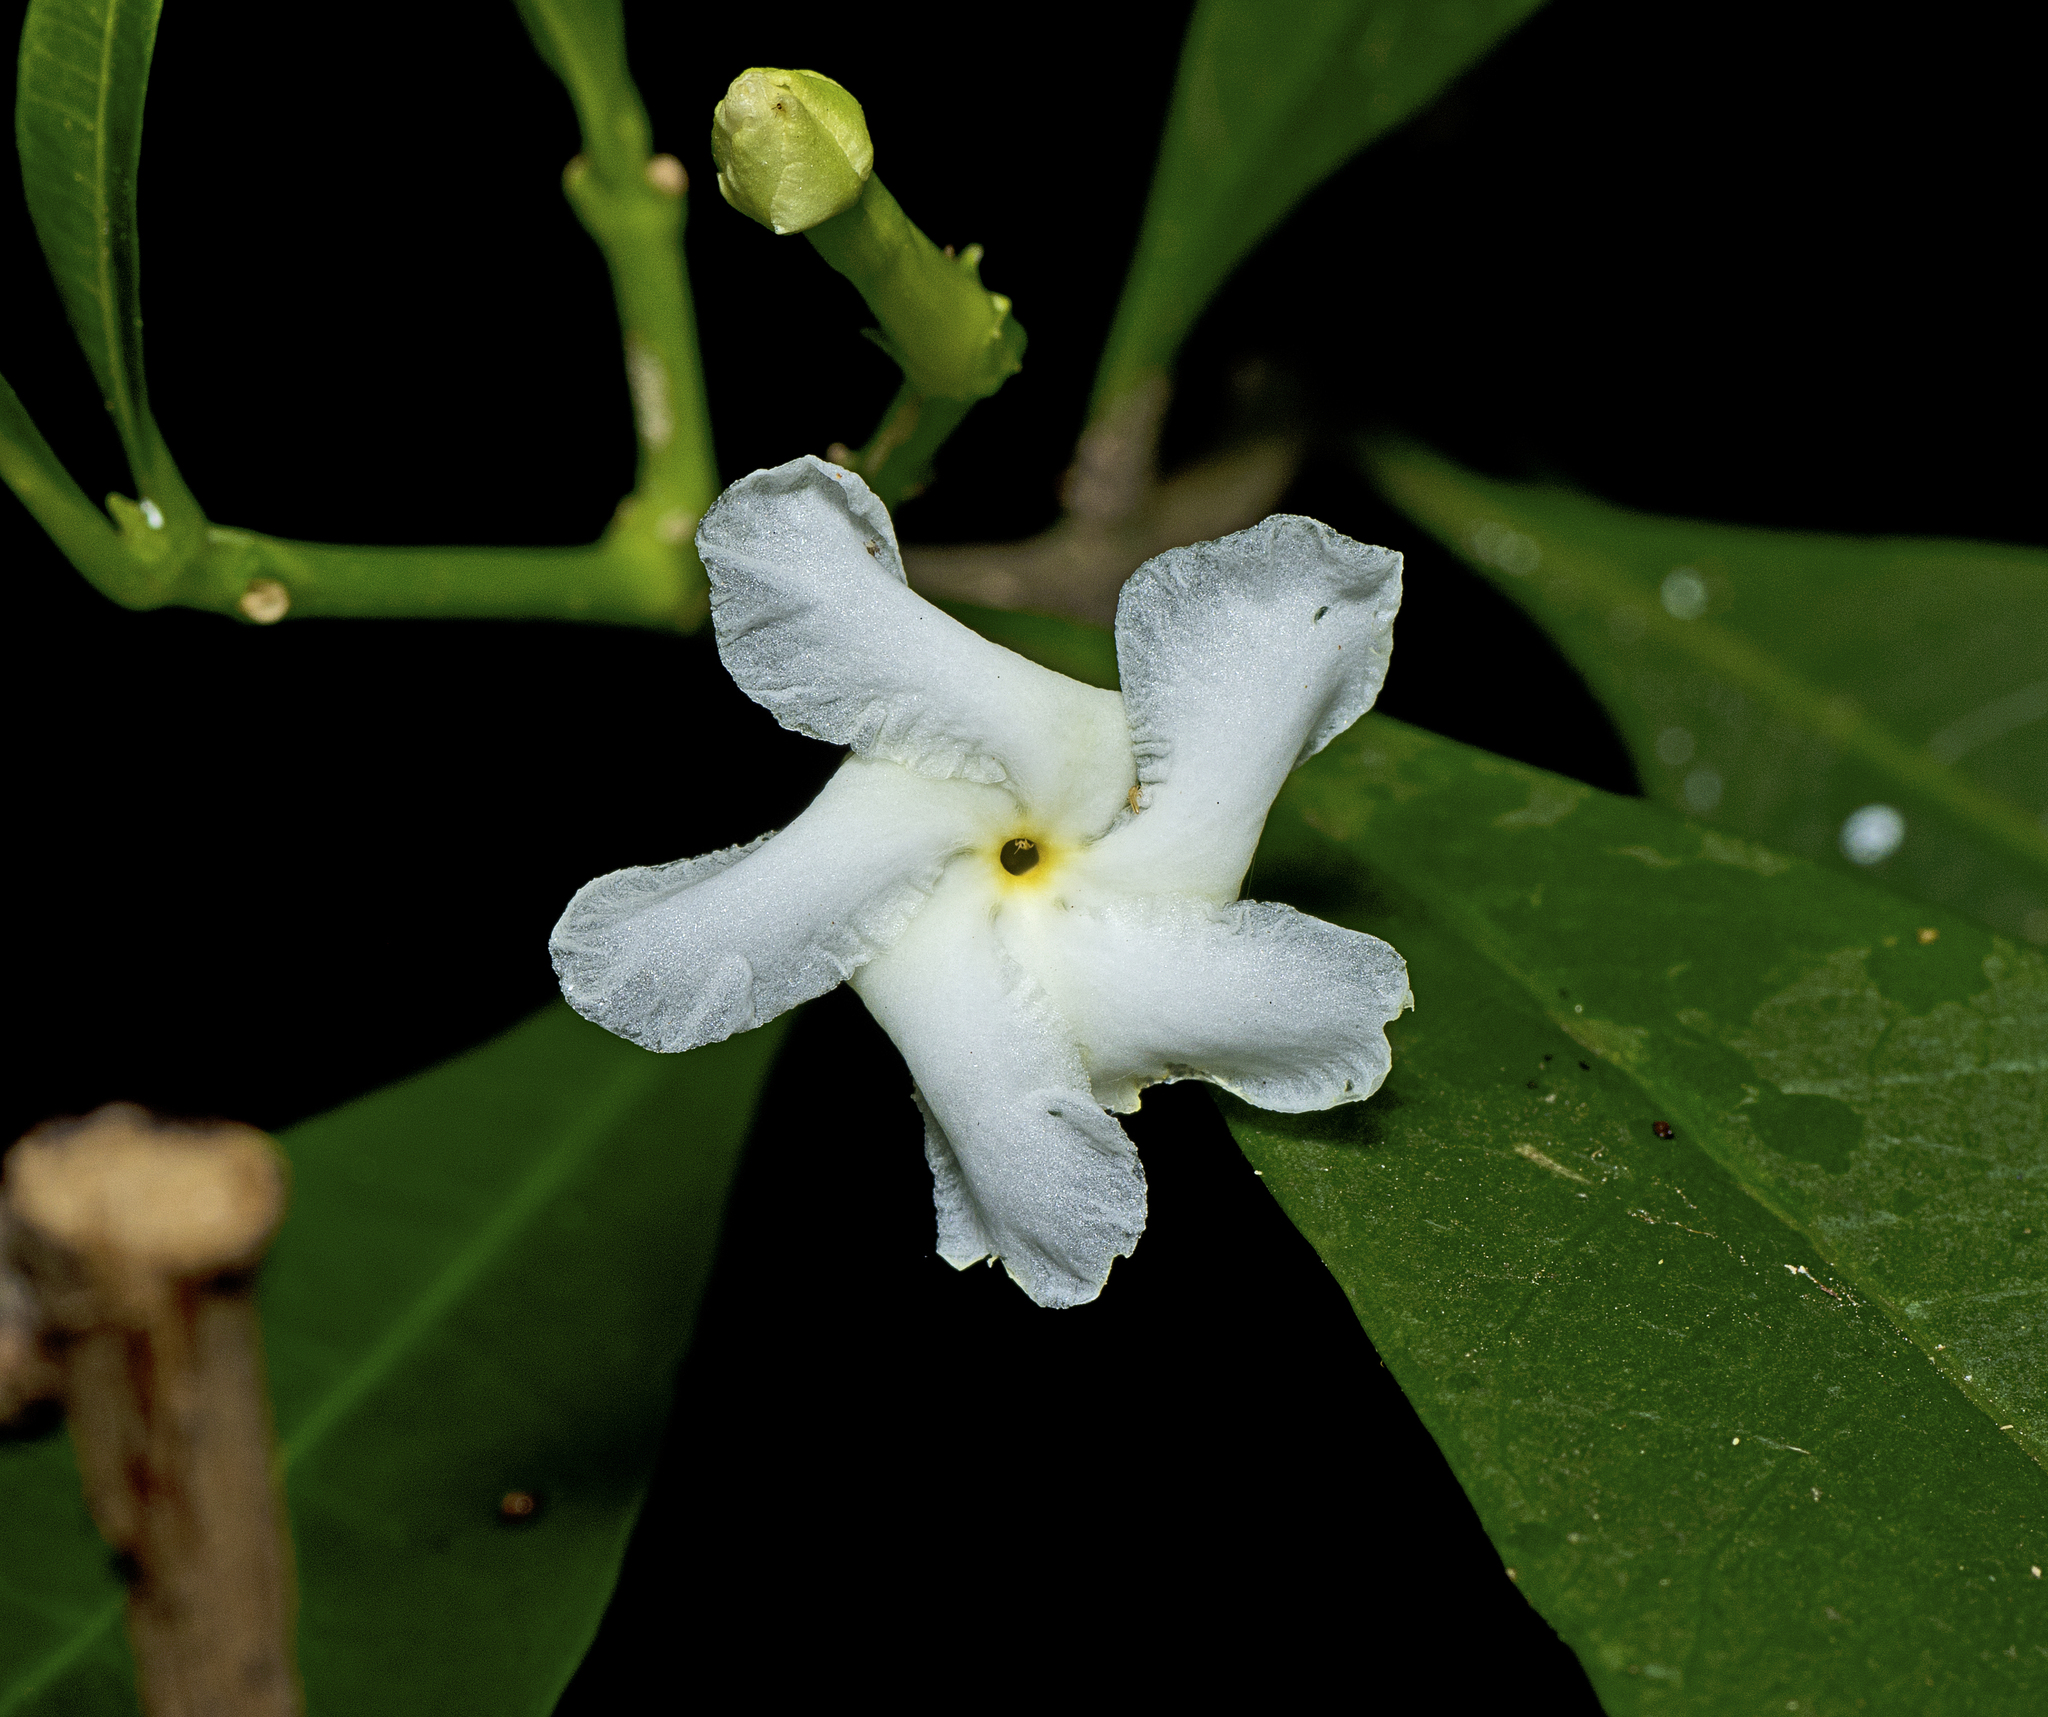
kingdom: Plantae
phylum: Tracheophyta
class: Magnoliopsida
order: Gentianales
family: Apocynaceae
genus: Tabernaemontana
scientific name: Tabernaemontana pandacaqui
